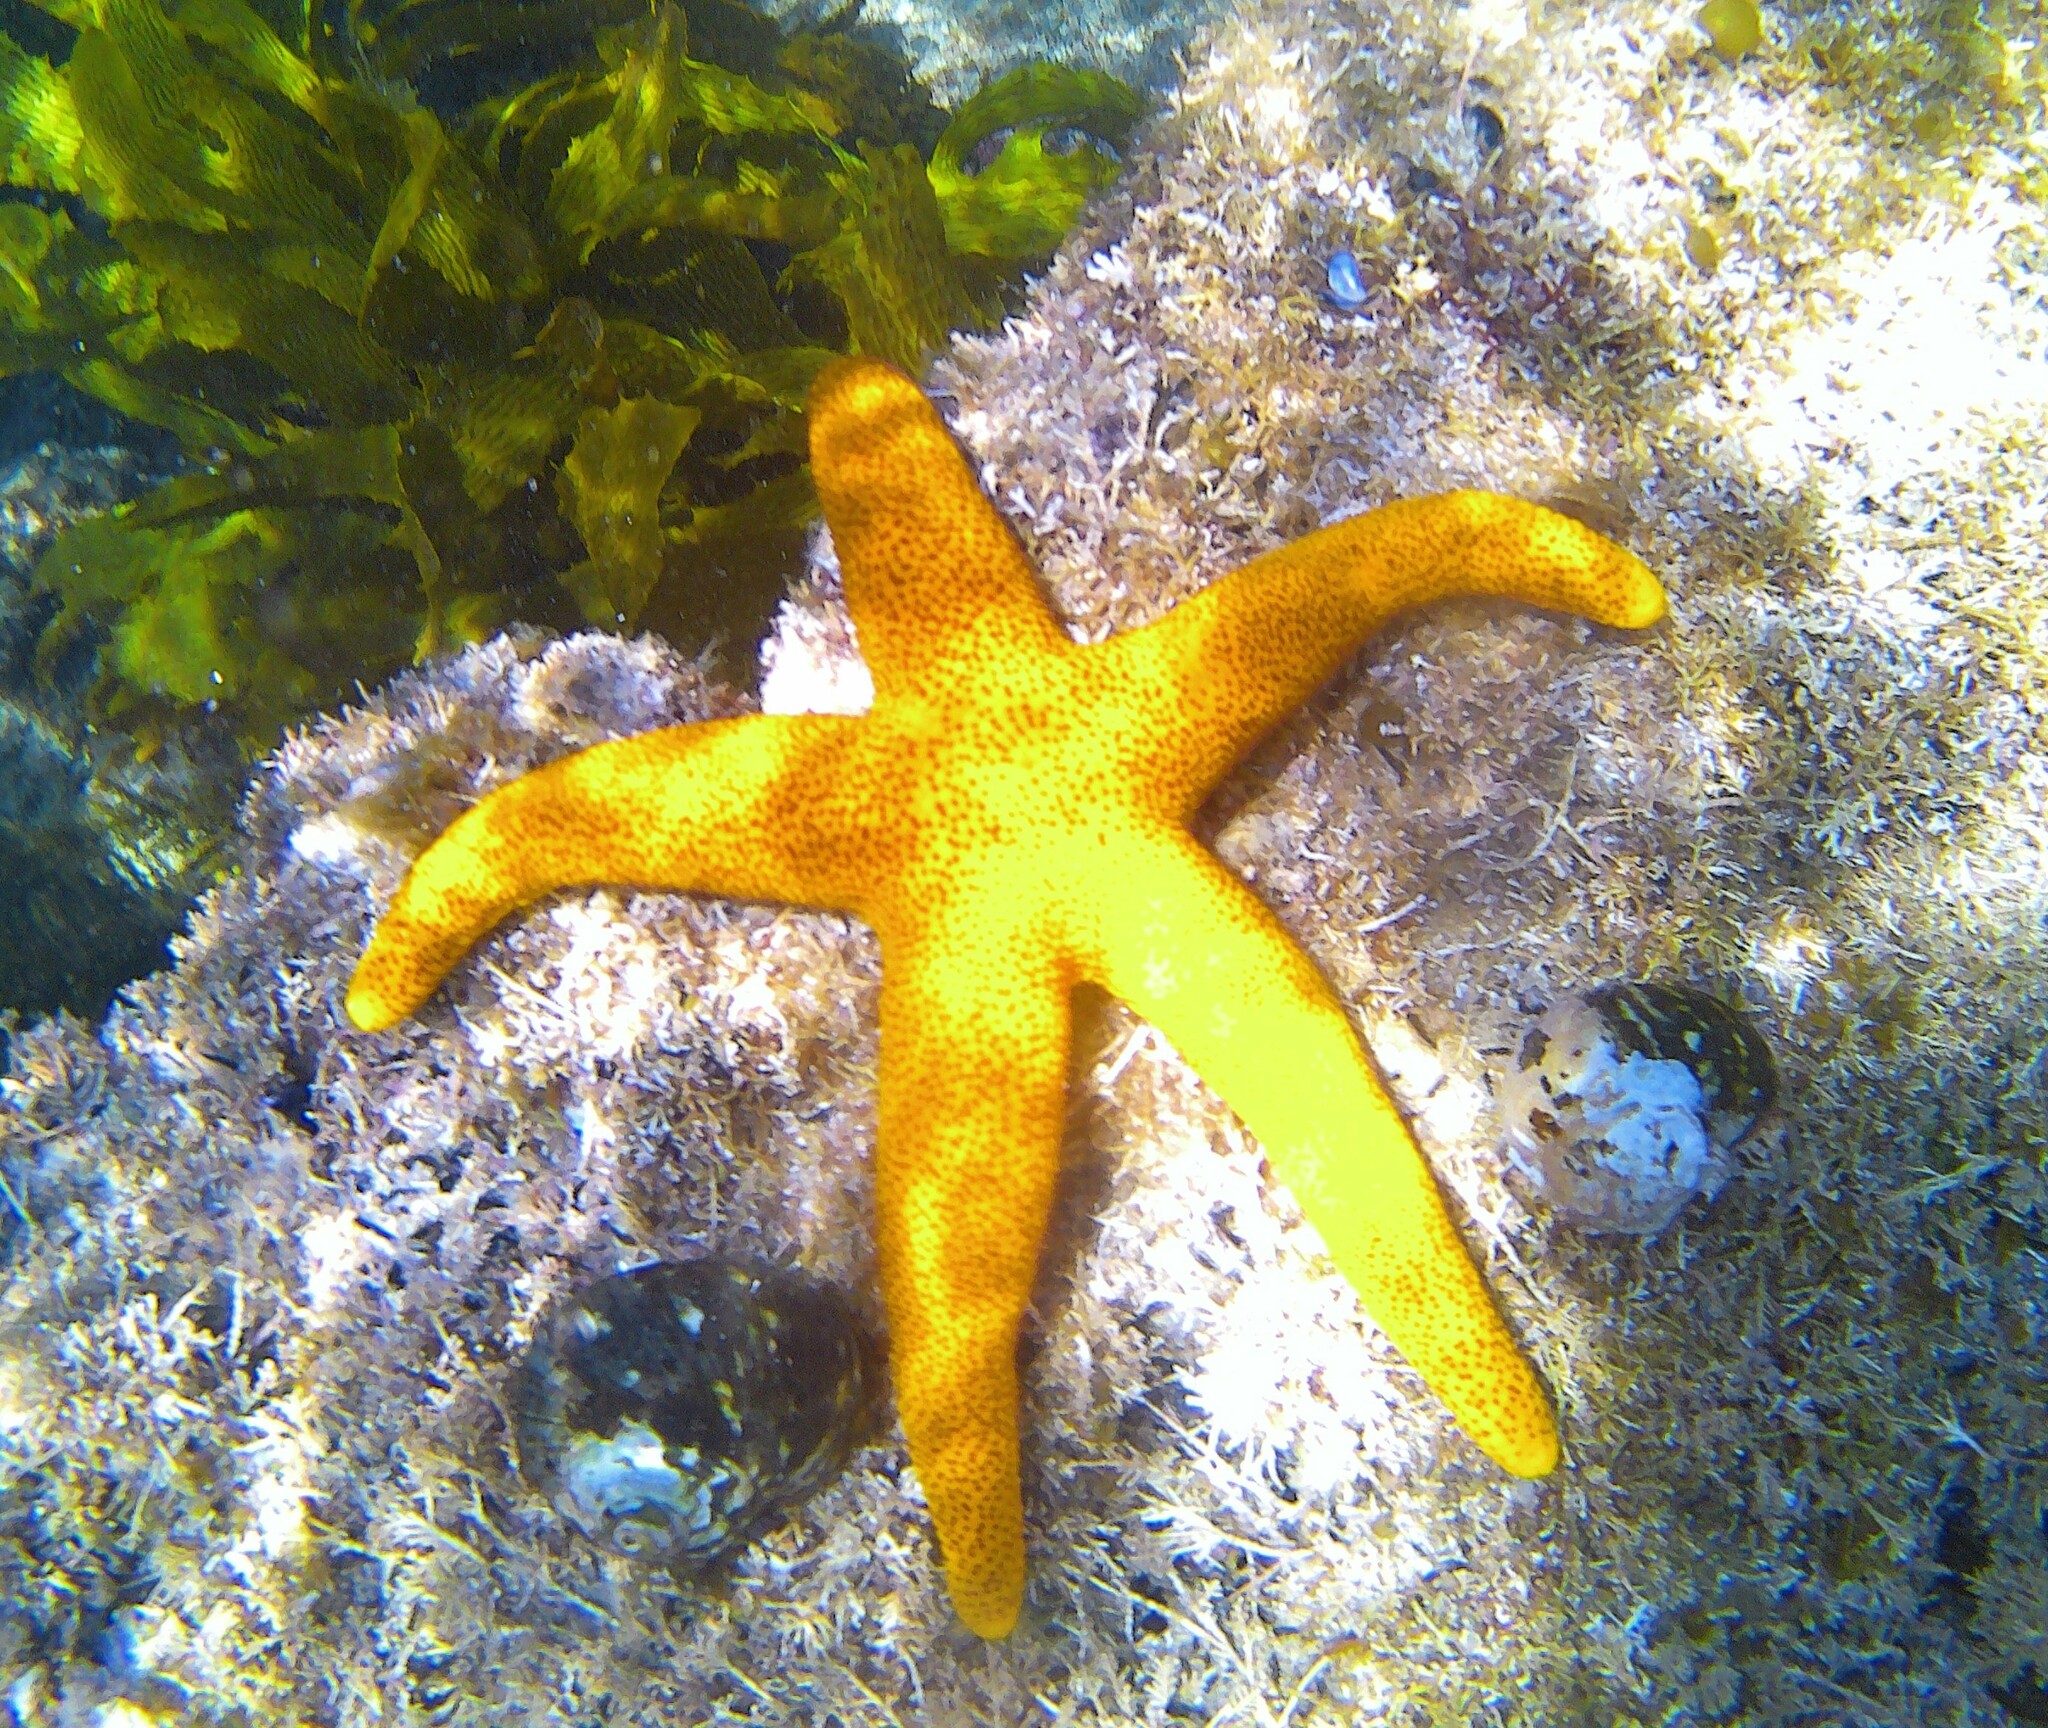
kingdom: Animalia
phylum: Echinodermata
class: Asteroidea
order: Valvatida
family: Goniasteridae
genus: Fromia
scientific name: Fromia polypora
